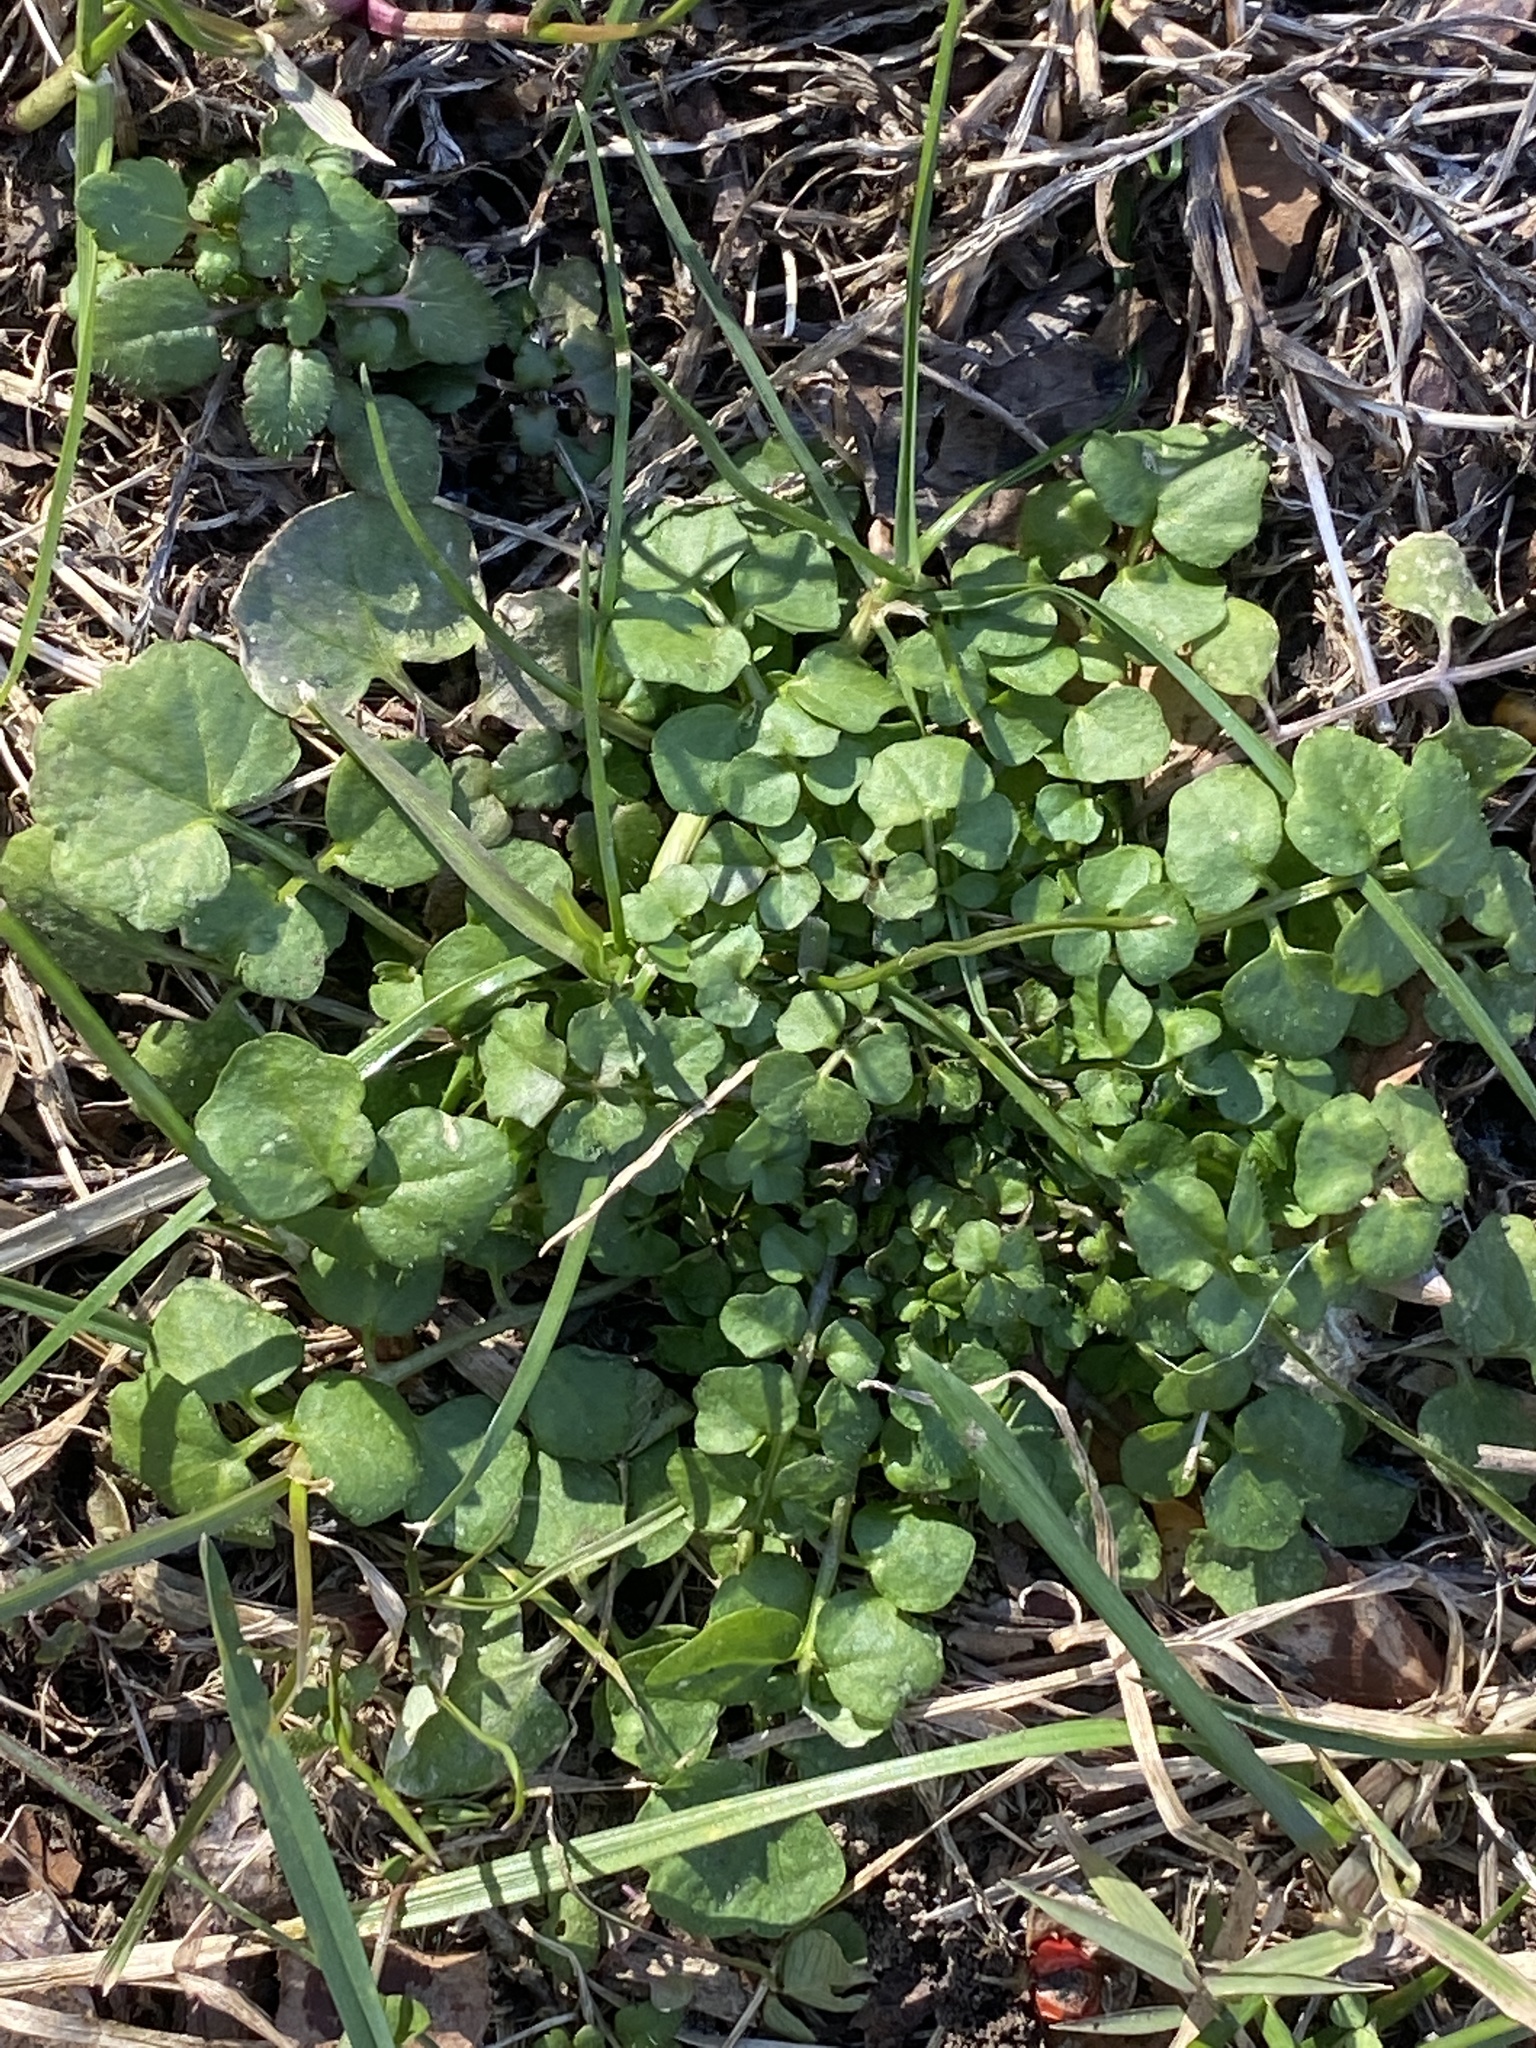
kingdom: Plantae
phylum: Tracheophyta
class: Magnoliopsida
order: Brassicales
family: Brassicaceae
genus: Cardamine
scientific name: Cardamine hirsuta
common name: Hairy bittercress
